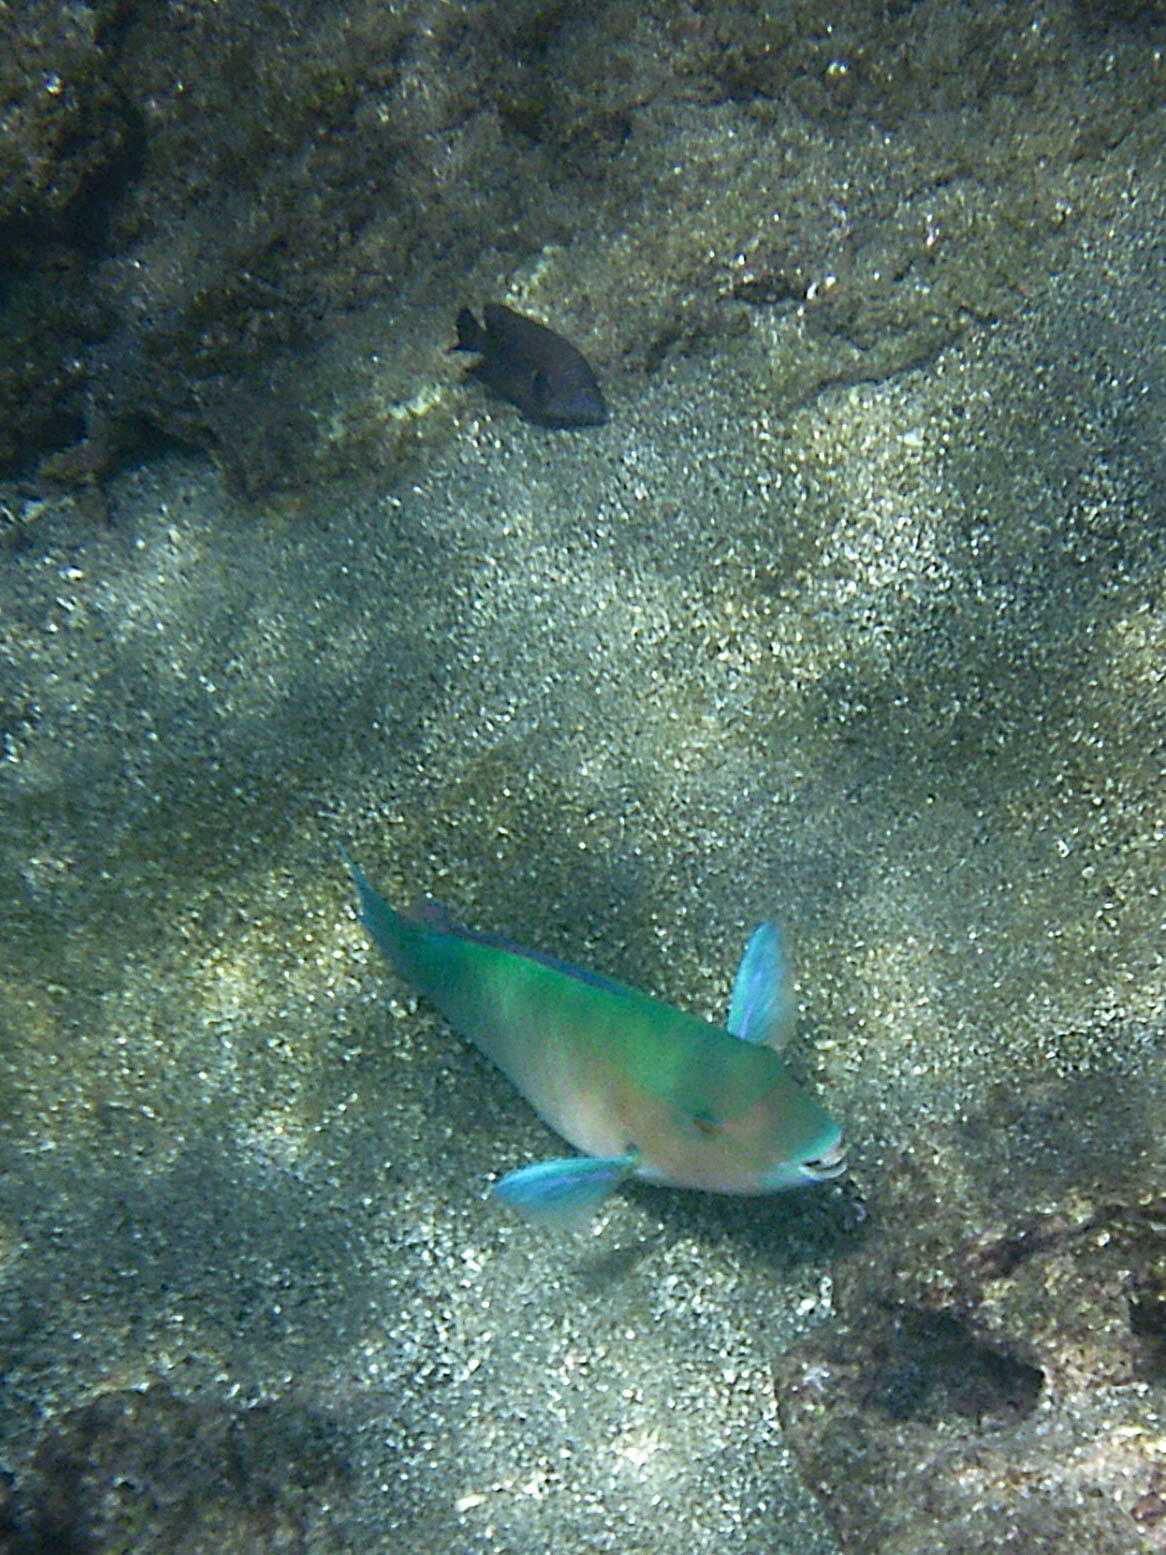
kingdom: Animalia
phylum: Chordata
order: Perciformes
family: Pomacentridae
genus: Stegastes
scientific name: Stegastes beebei
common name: Galapagos ringtail damselfish
